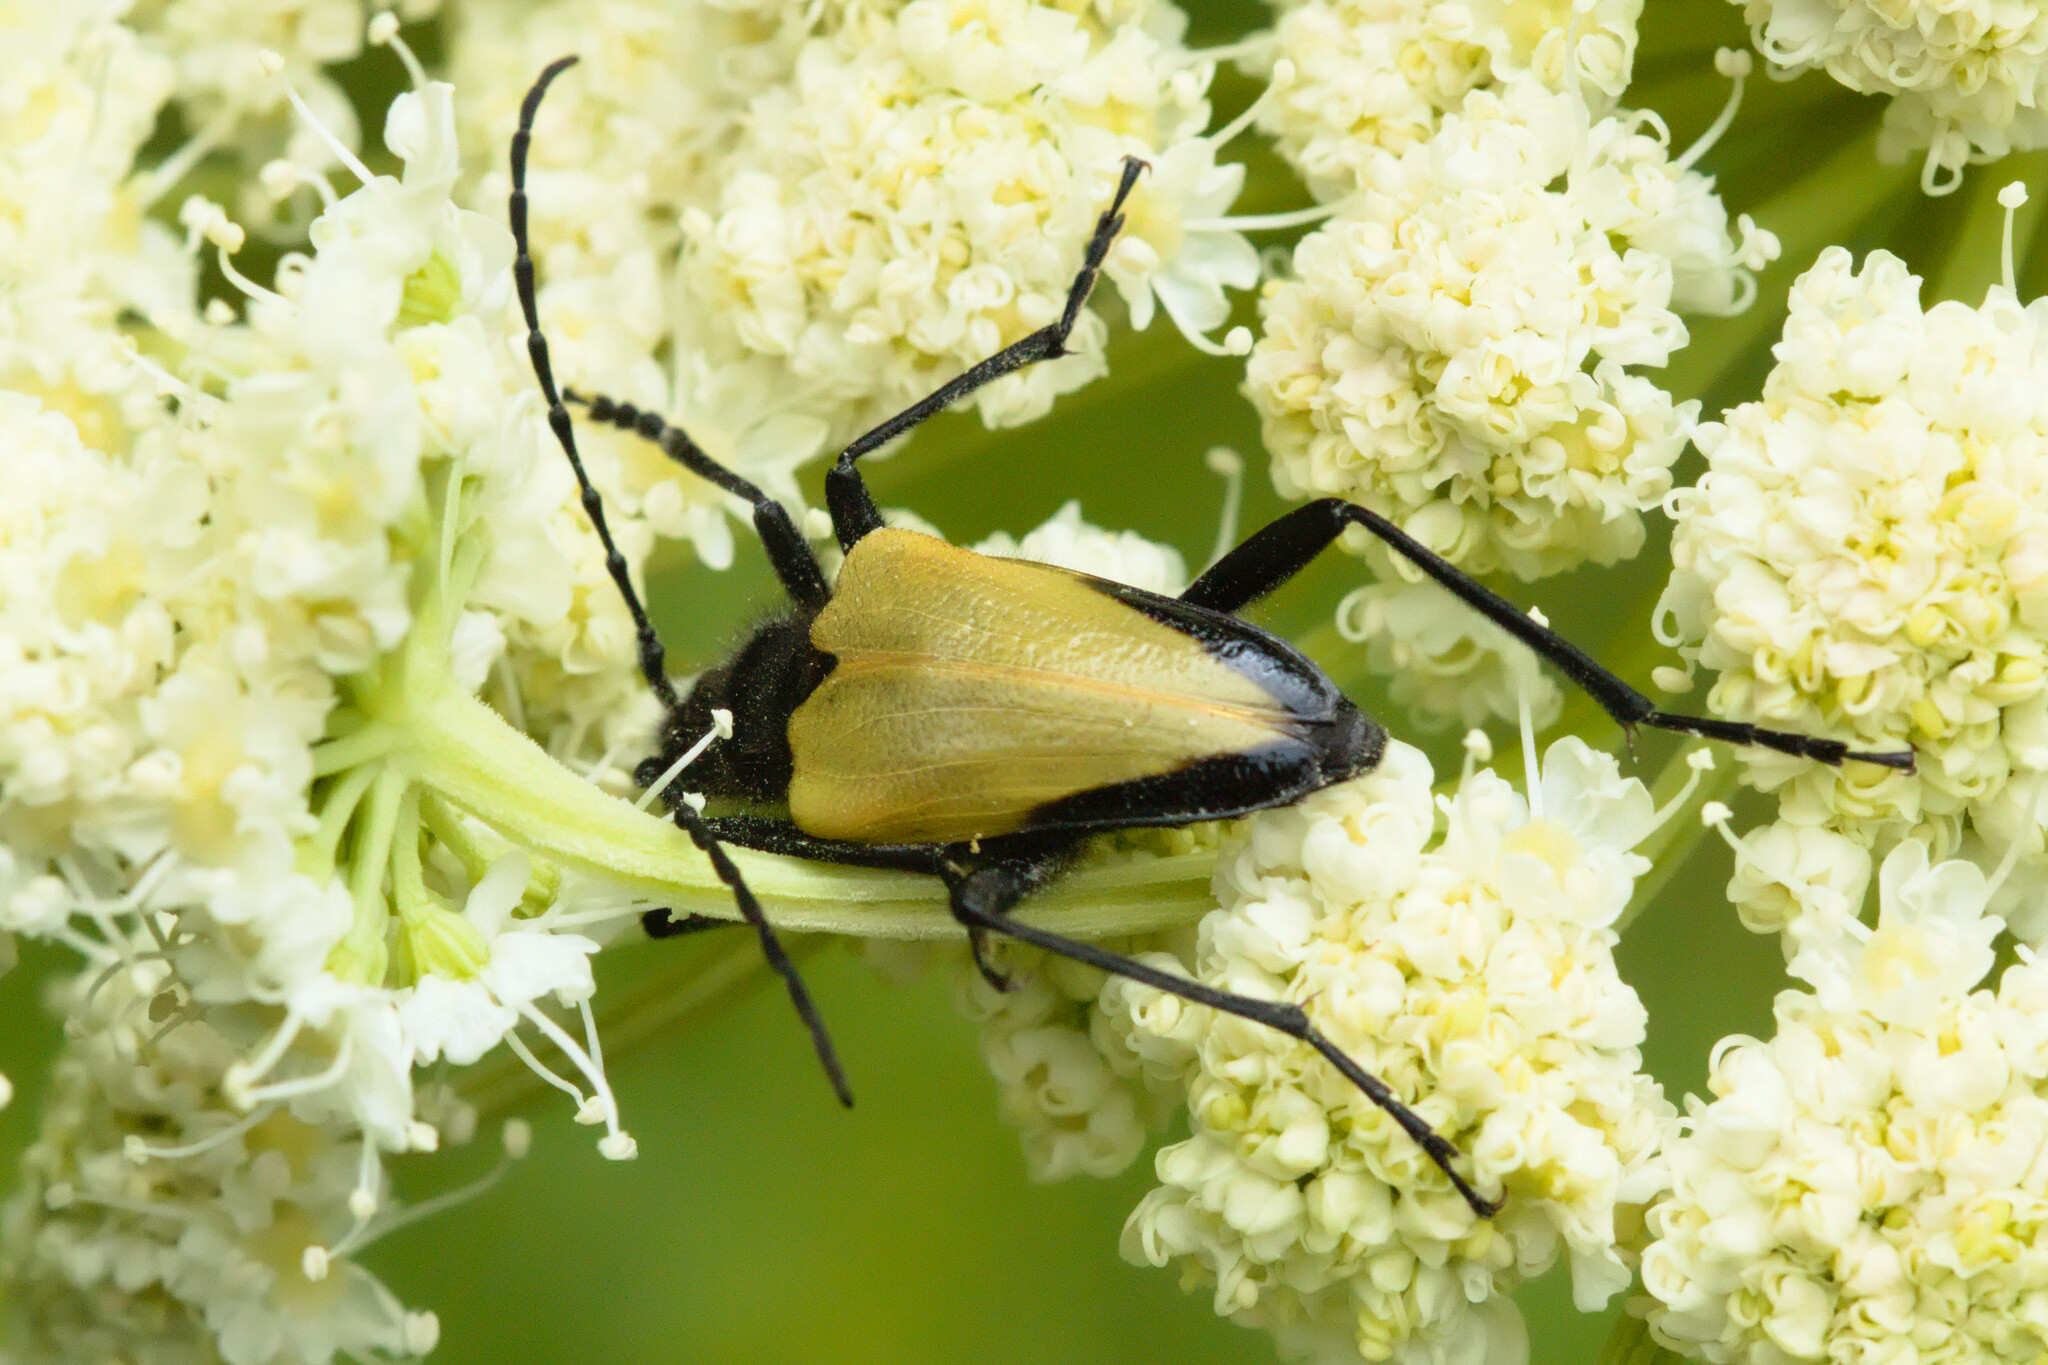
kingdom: Animalia
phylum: Arthropoda
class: Insecta
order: Coleoptera
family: Cerambycidae
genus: Pachyta
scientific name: Pachyta armata
